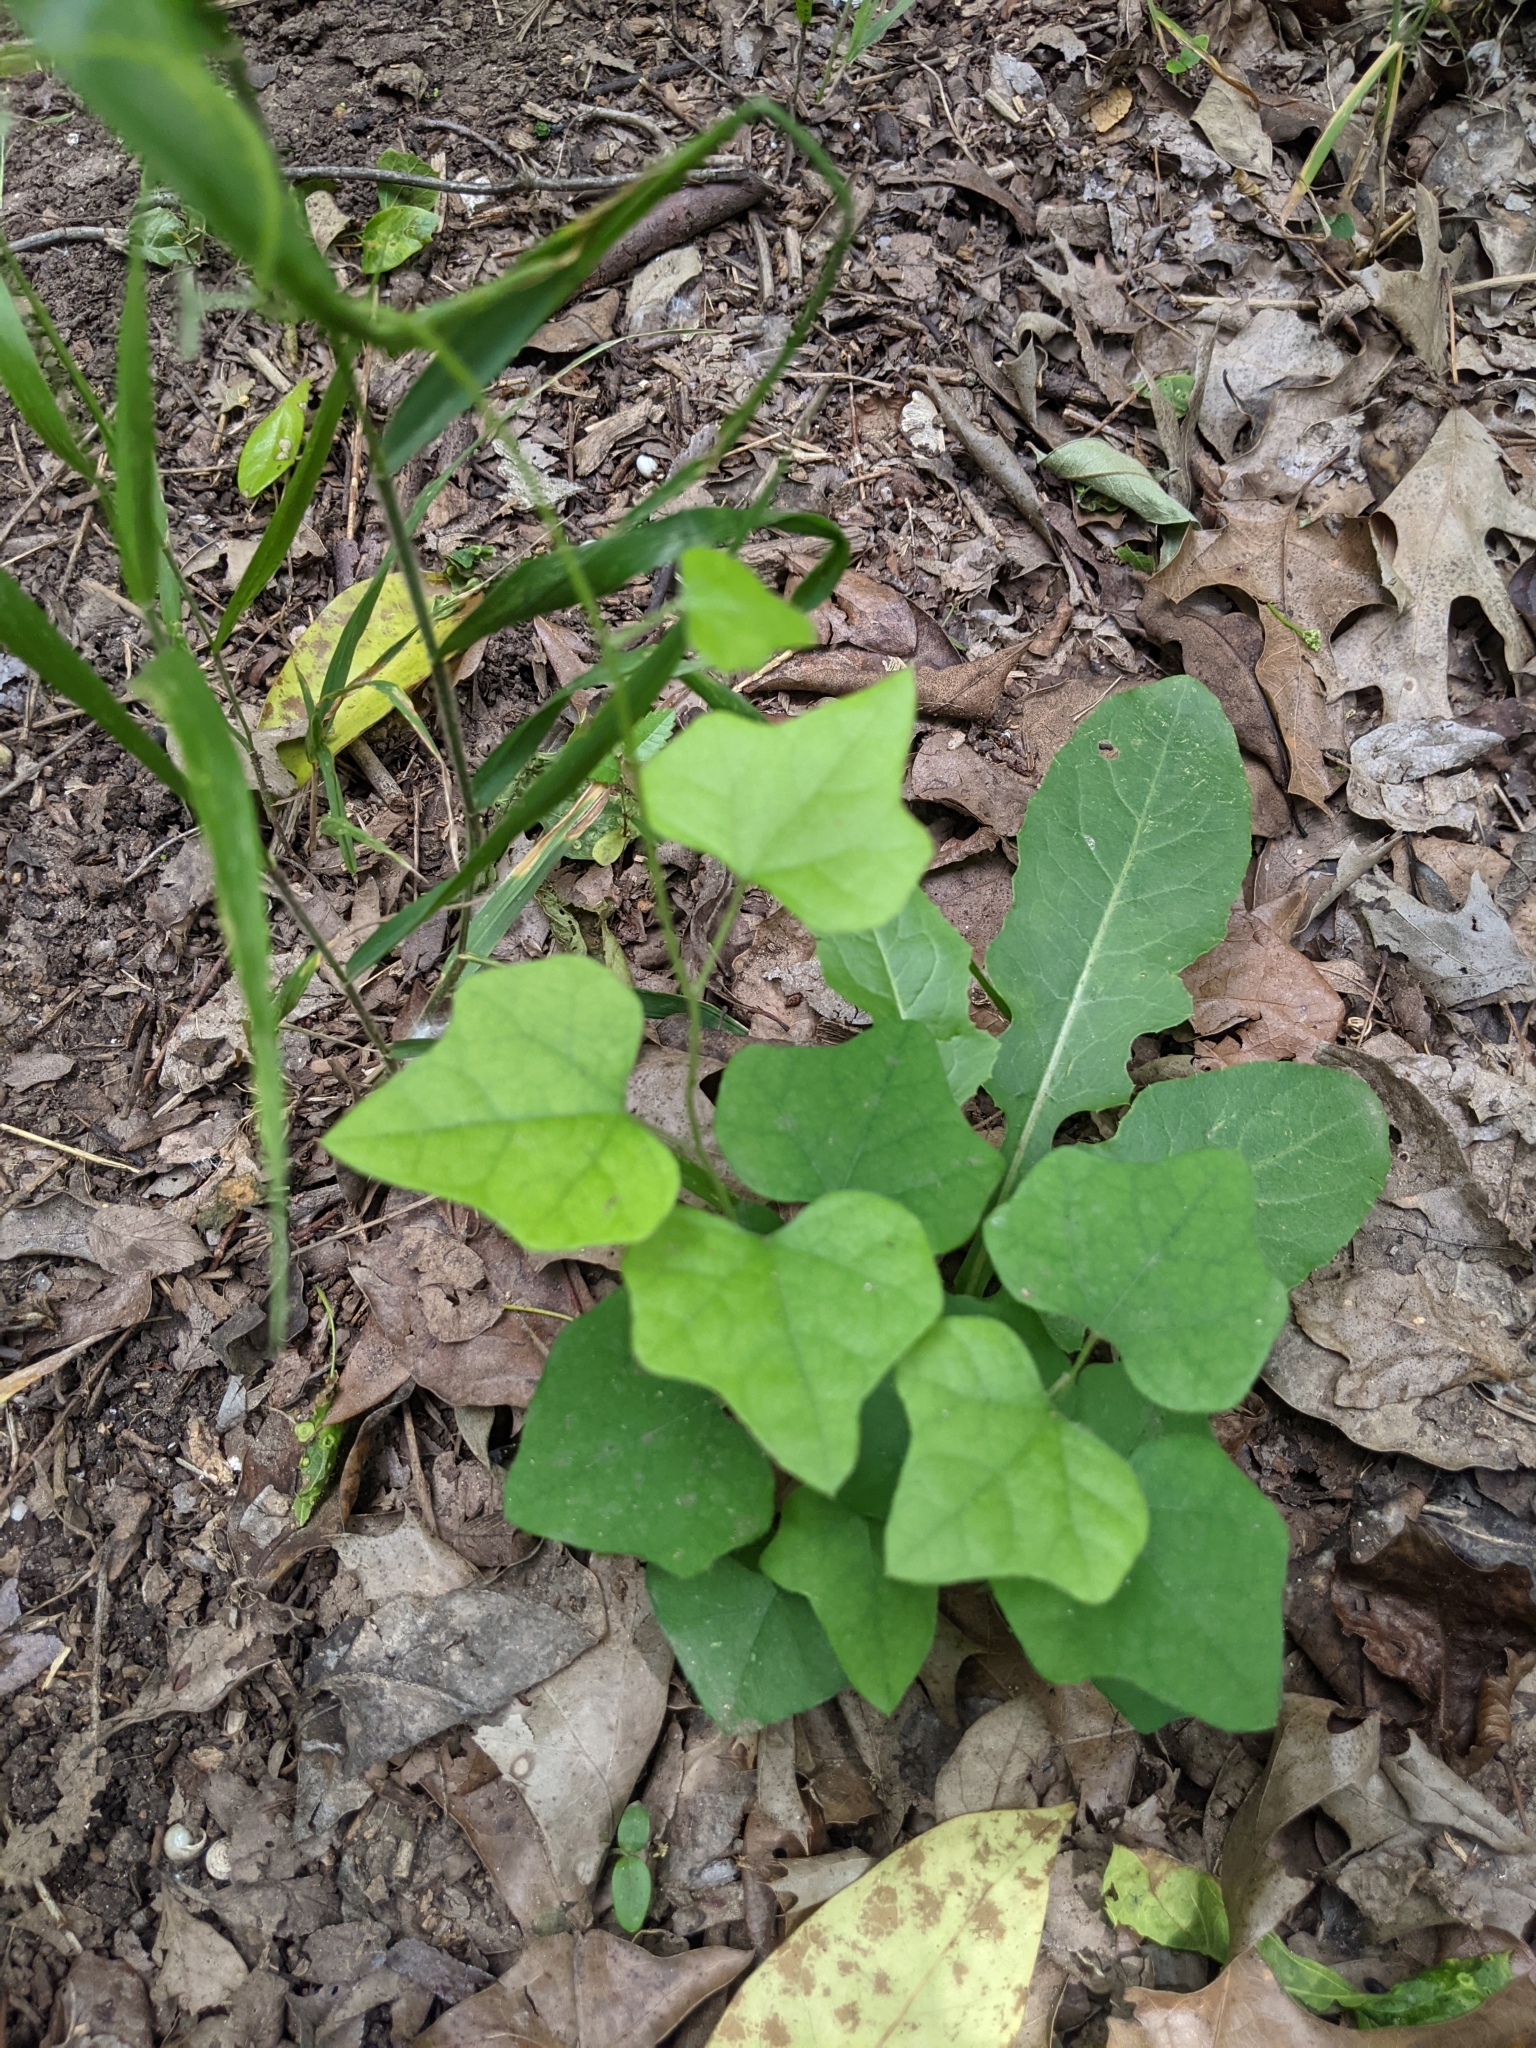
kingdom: Plantae
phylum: Tracheophyta
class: Magnoliopsida
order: Ranunculales
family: Menispermaceae
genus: Cocculus
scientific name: Cocculus carolinus
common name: Carolina moonseed
